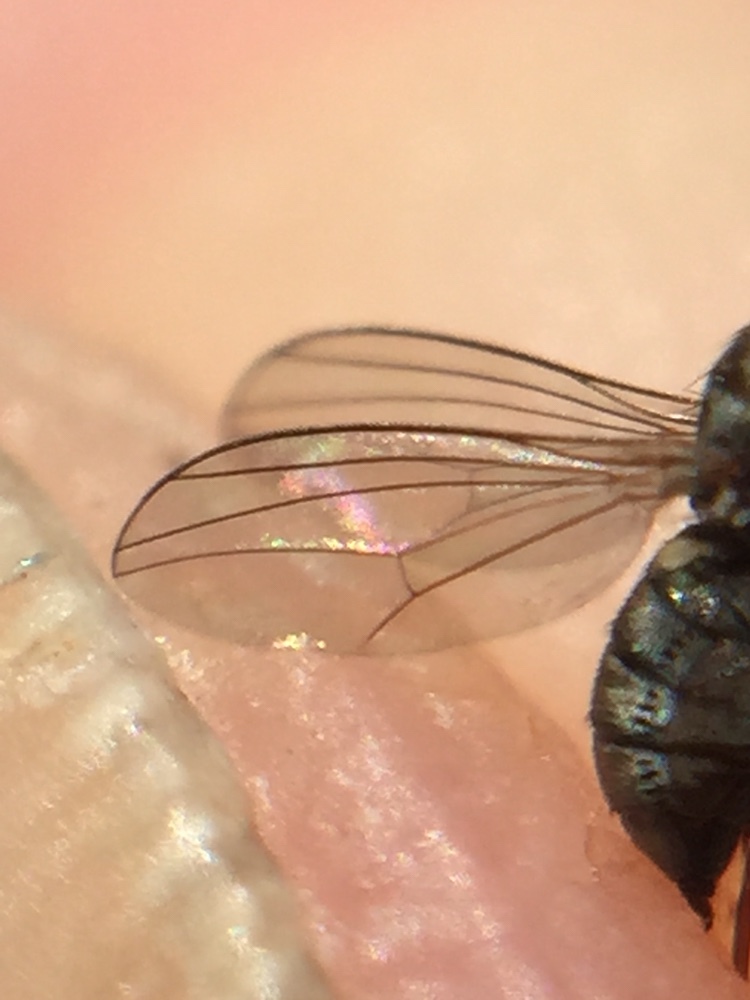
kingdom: Animalia
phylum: Arthropoda
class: Insecta
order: Diptera
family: Dolichopodidae
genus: Medetera
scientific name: Medetera grisescens
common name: Fly
